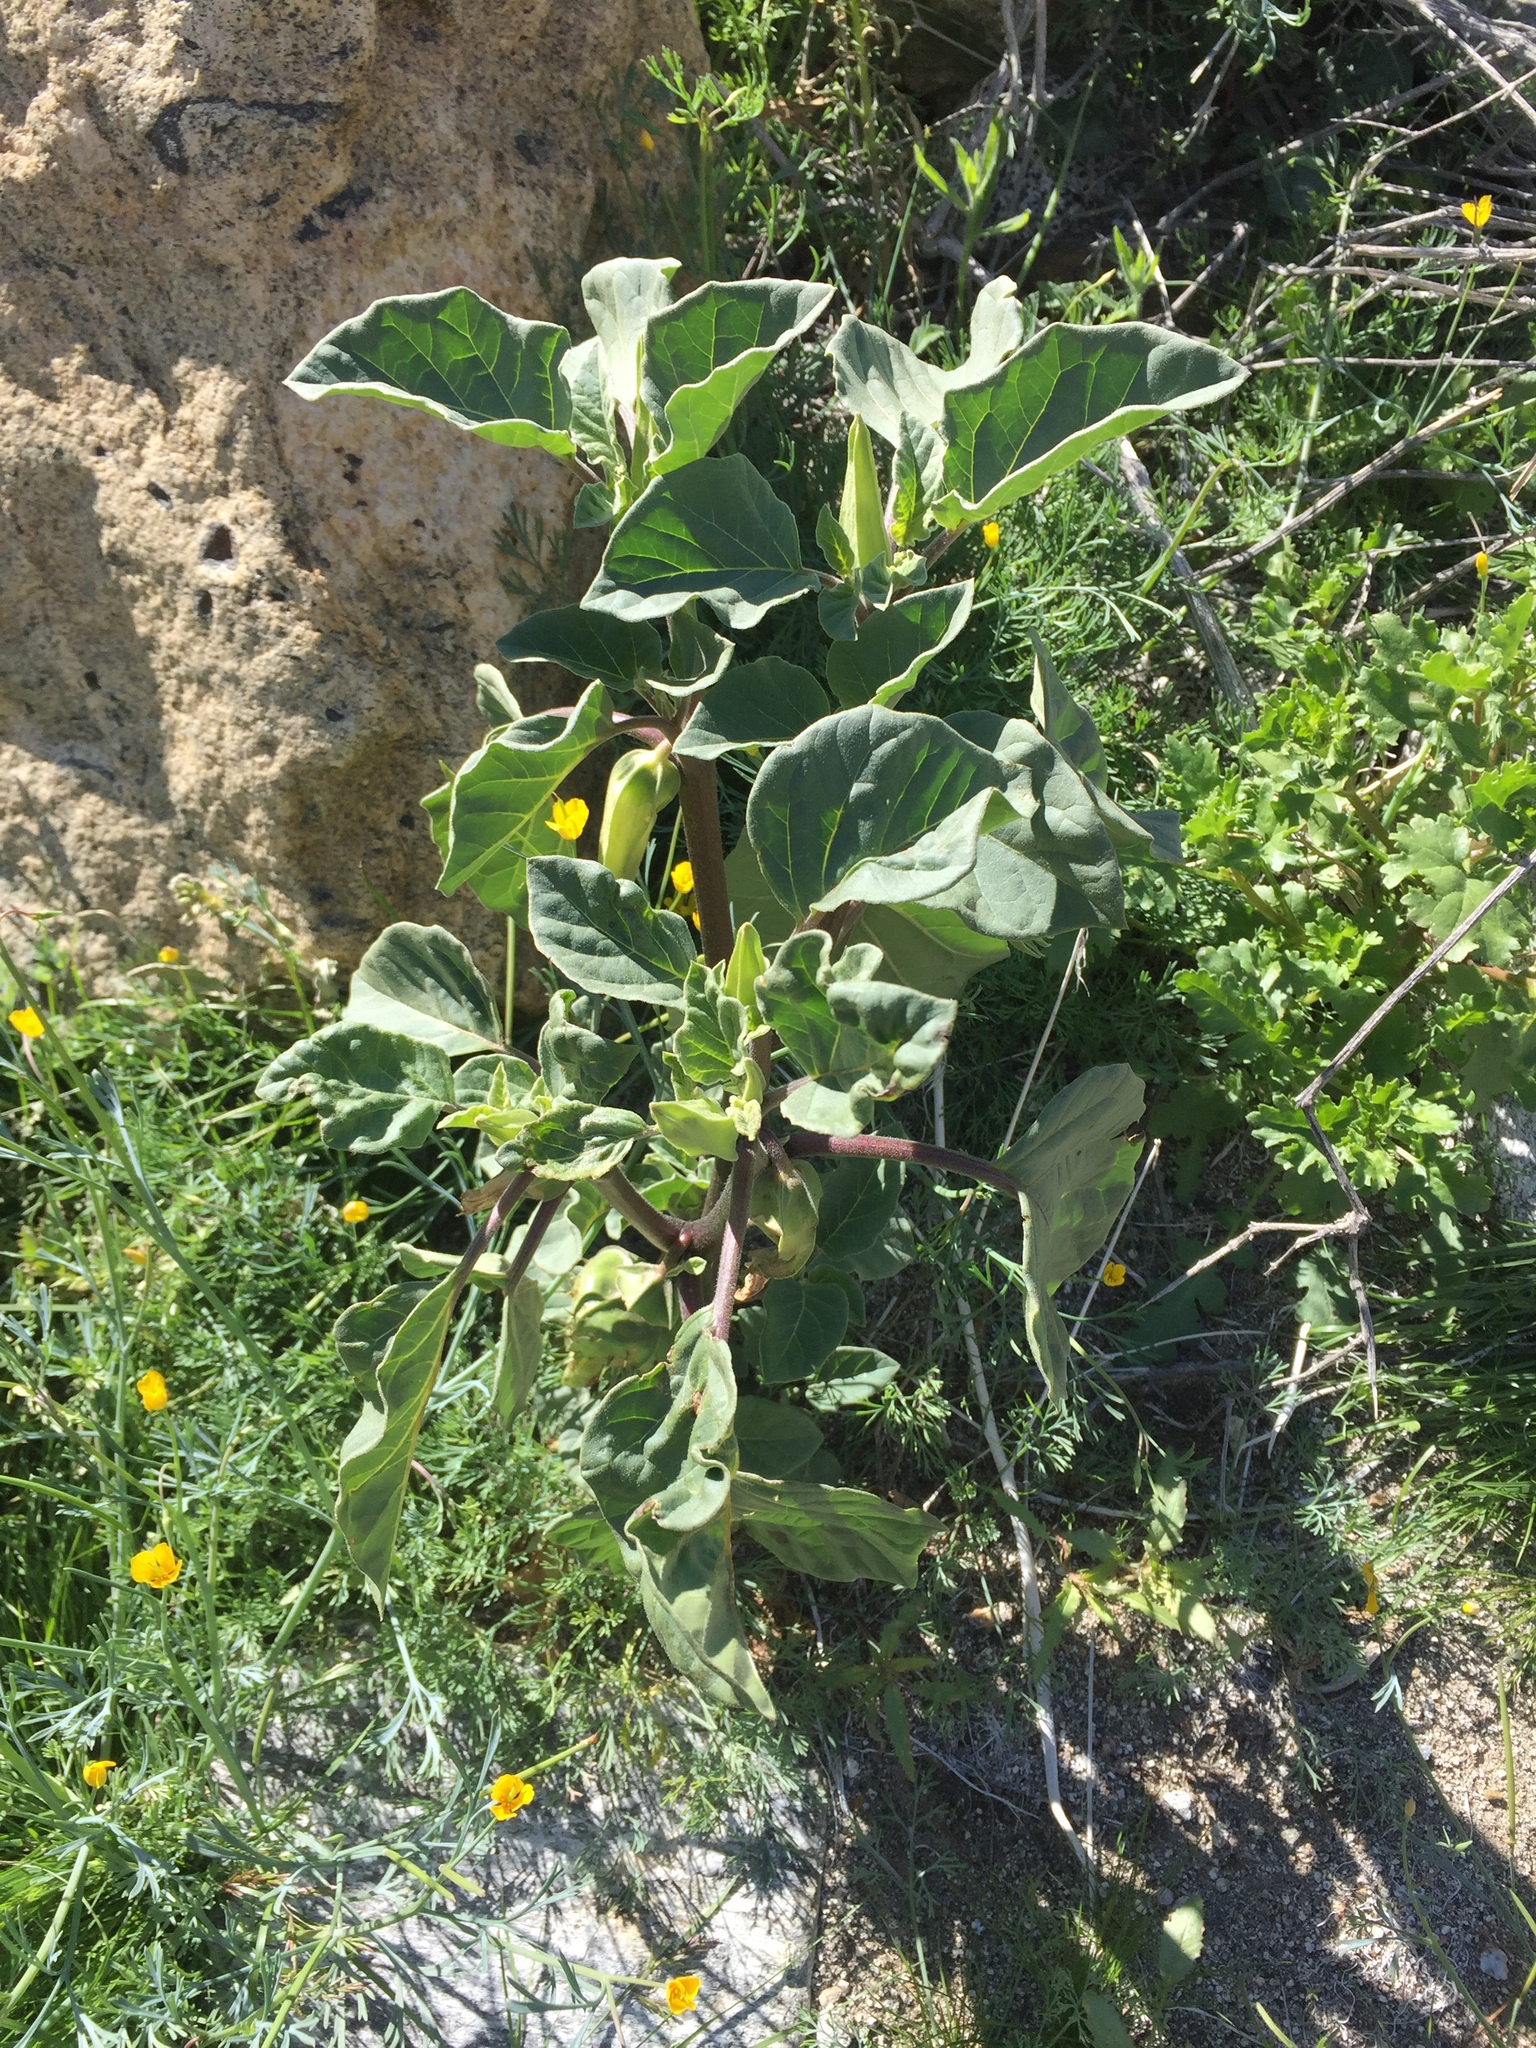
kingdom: Plantae
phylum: Tracheophyta
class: Magnoliopsida
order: Solanales
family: Solanaceae
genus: Datura
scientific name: Datura discolor
